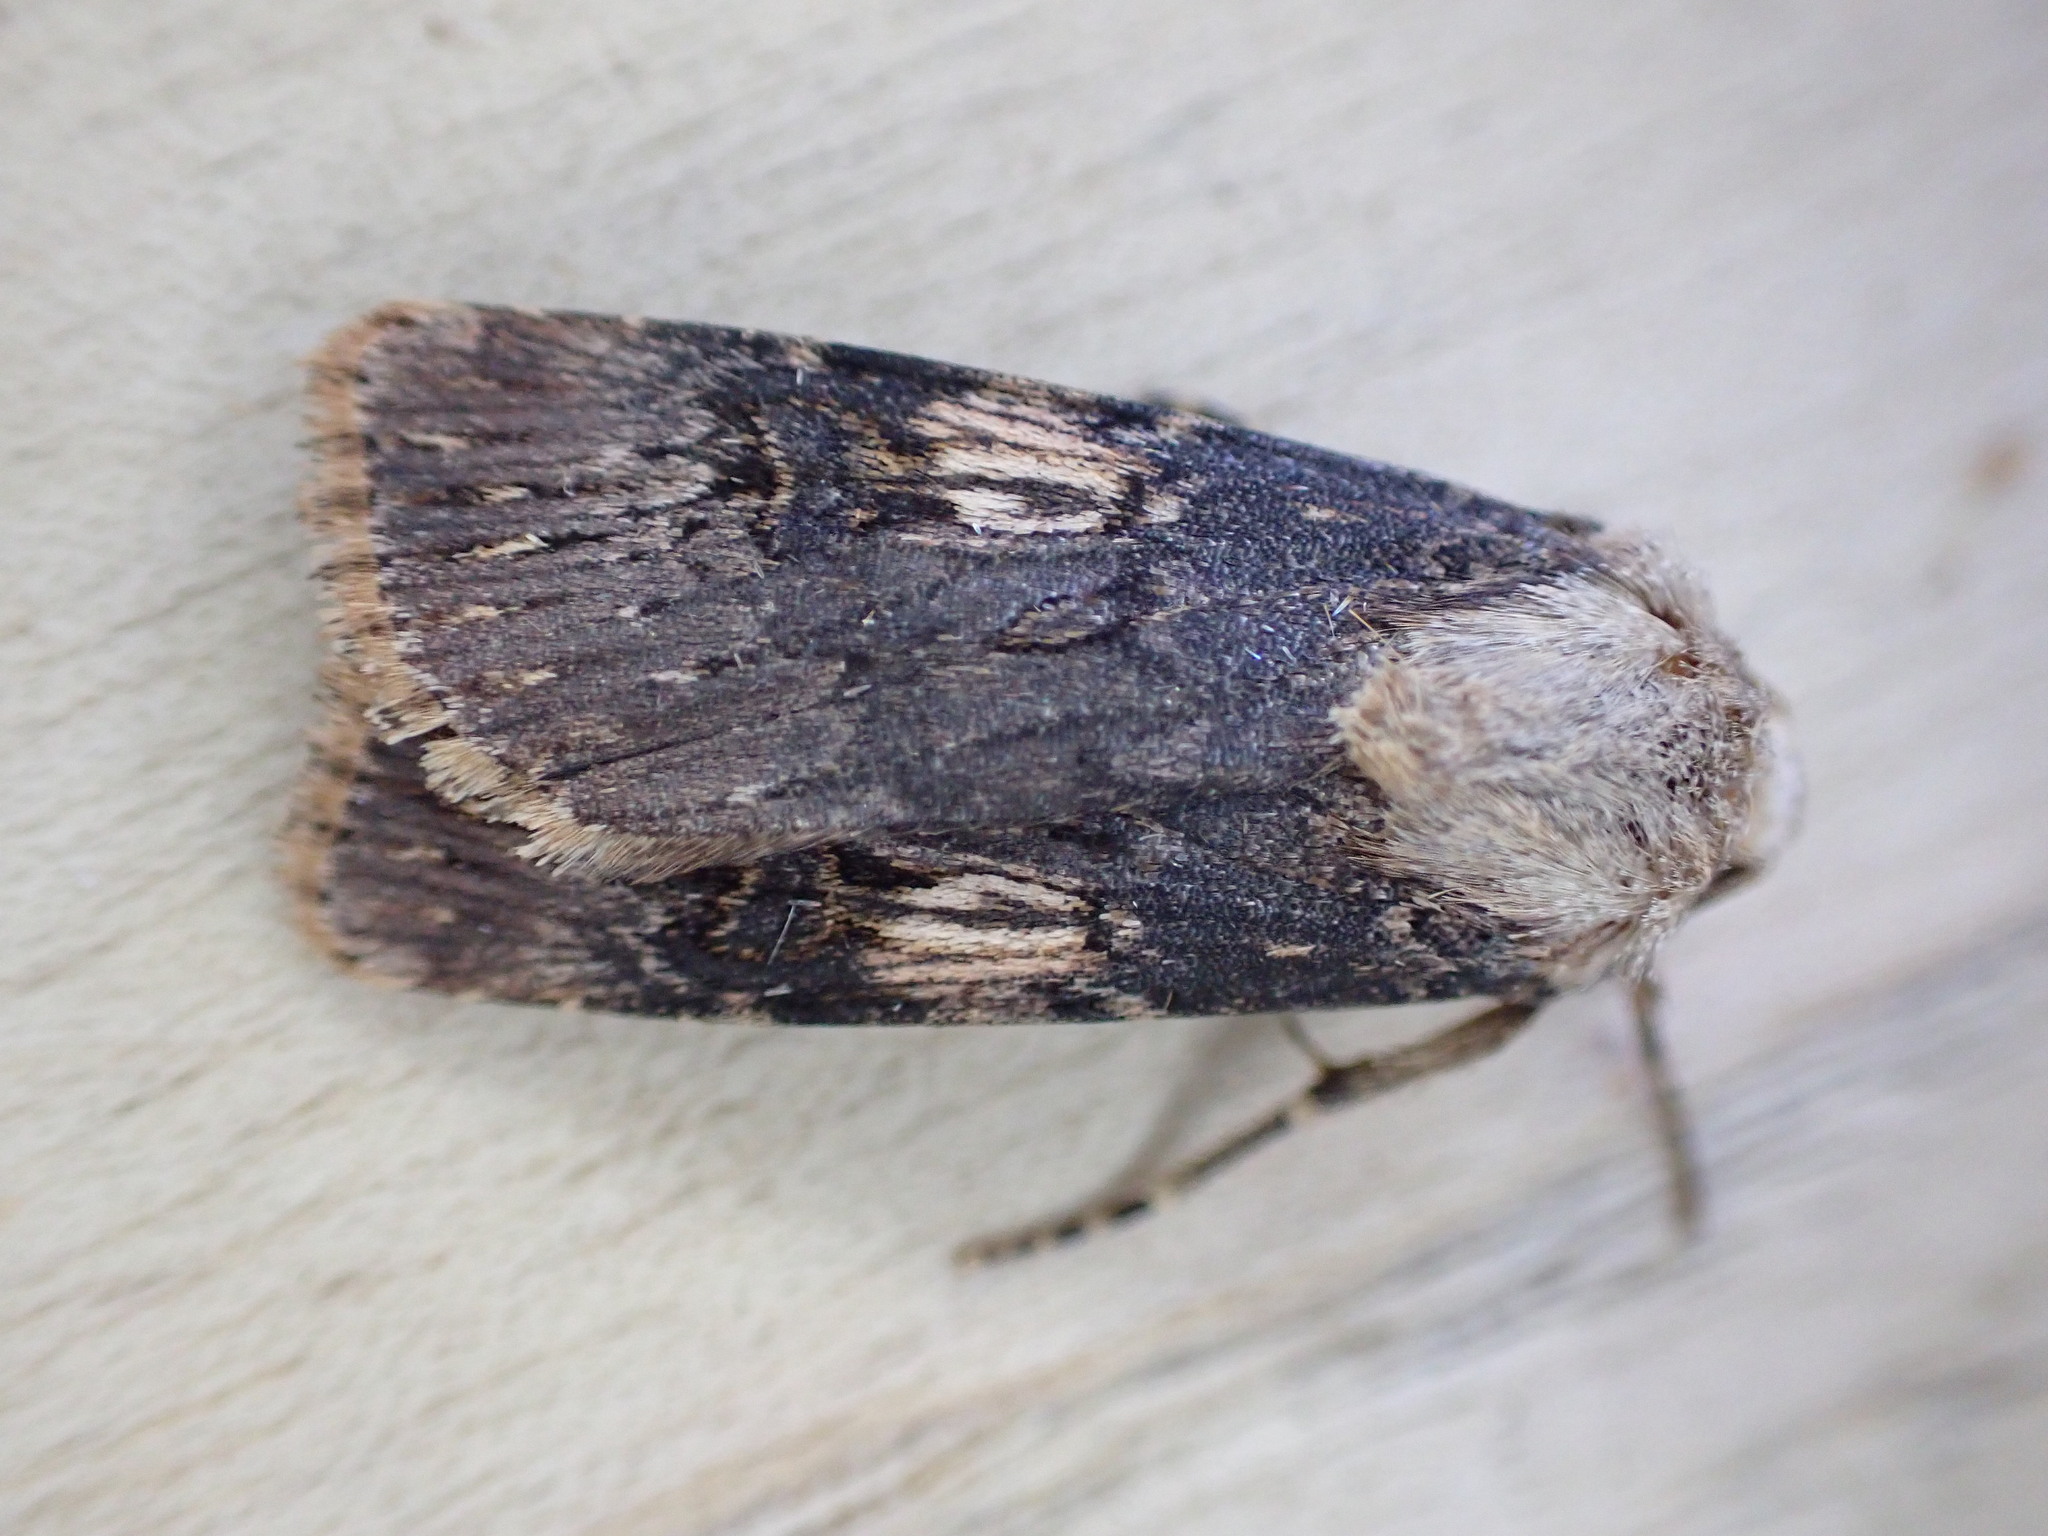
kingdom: Animalia
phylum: Arthropoda
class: Insecta
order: Lepidoptera
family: Noctuidae
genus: Agrotis
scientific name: Agrotis puta
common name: Shuttle-shaped dart
